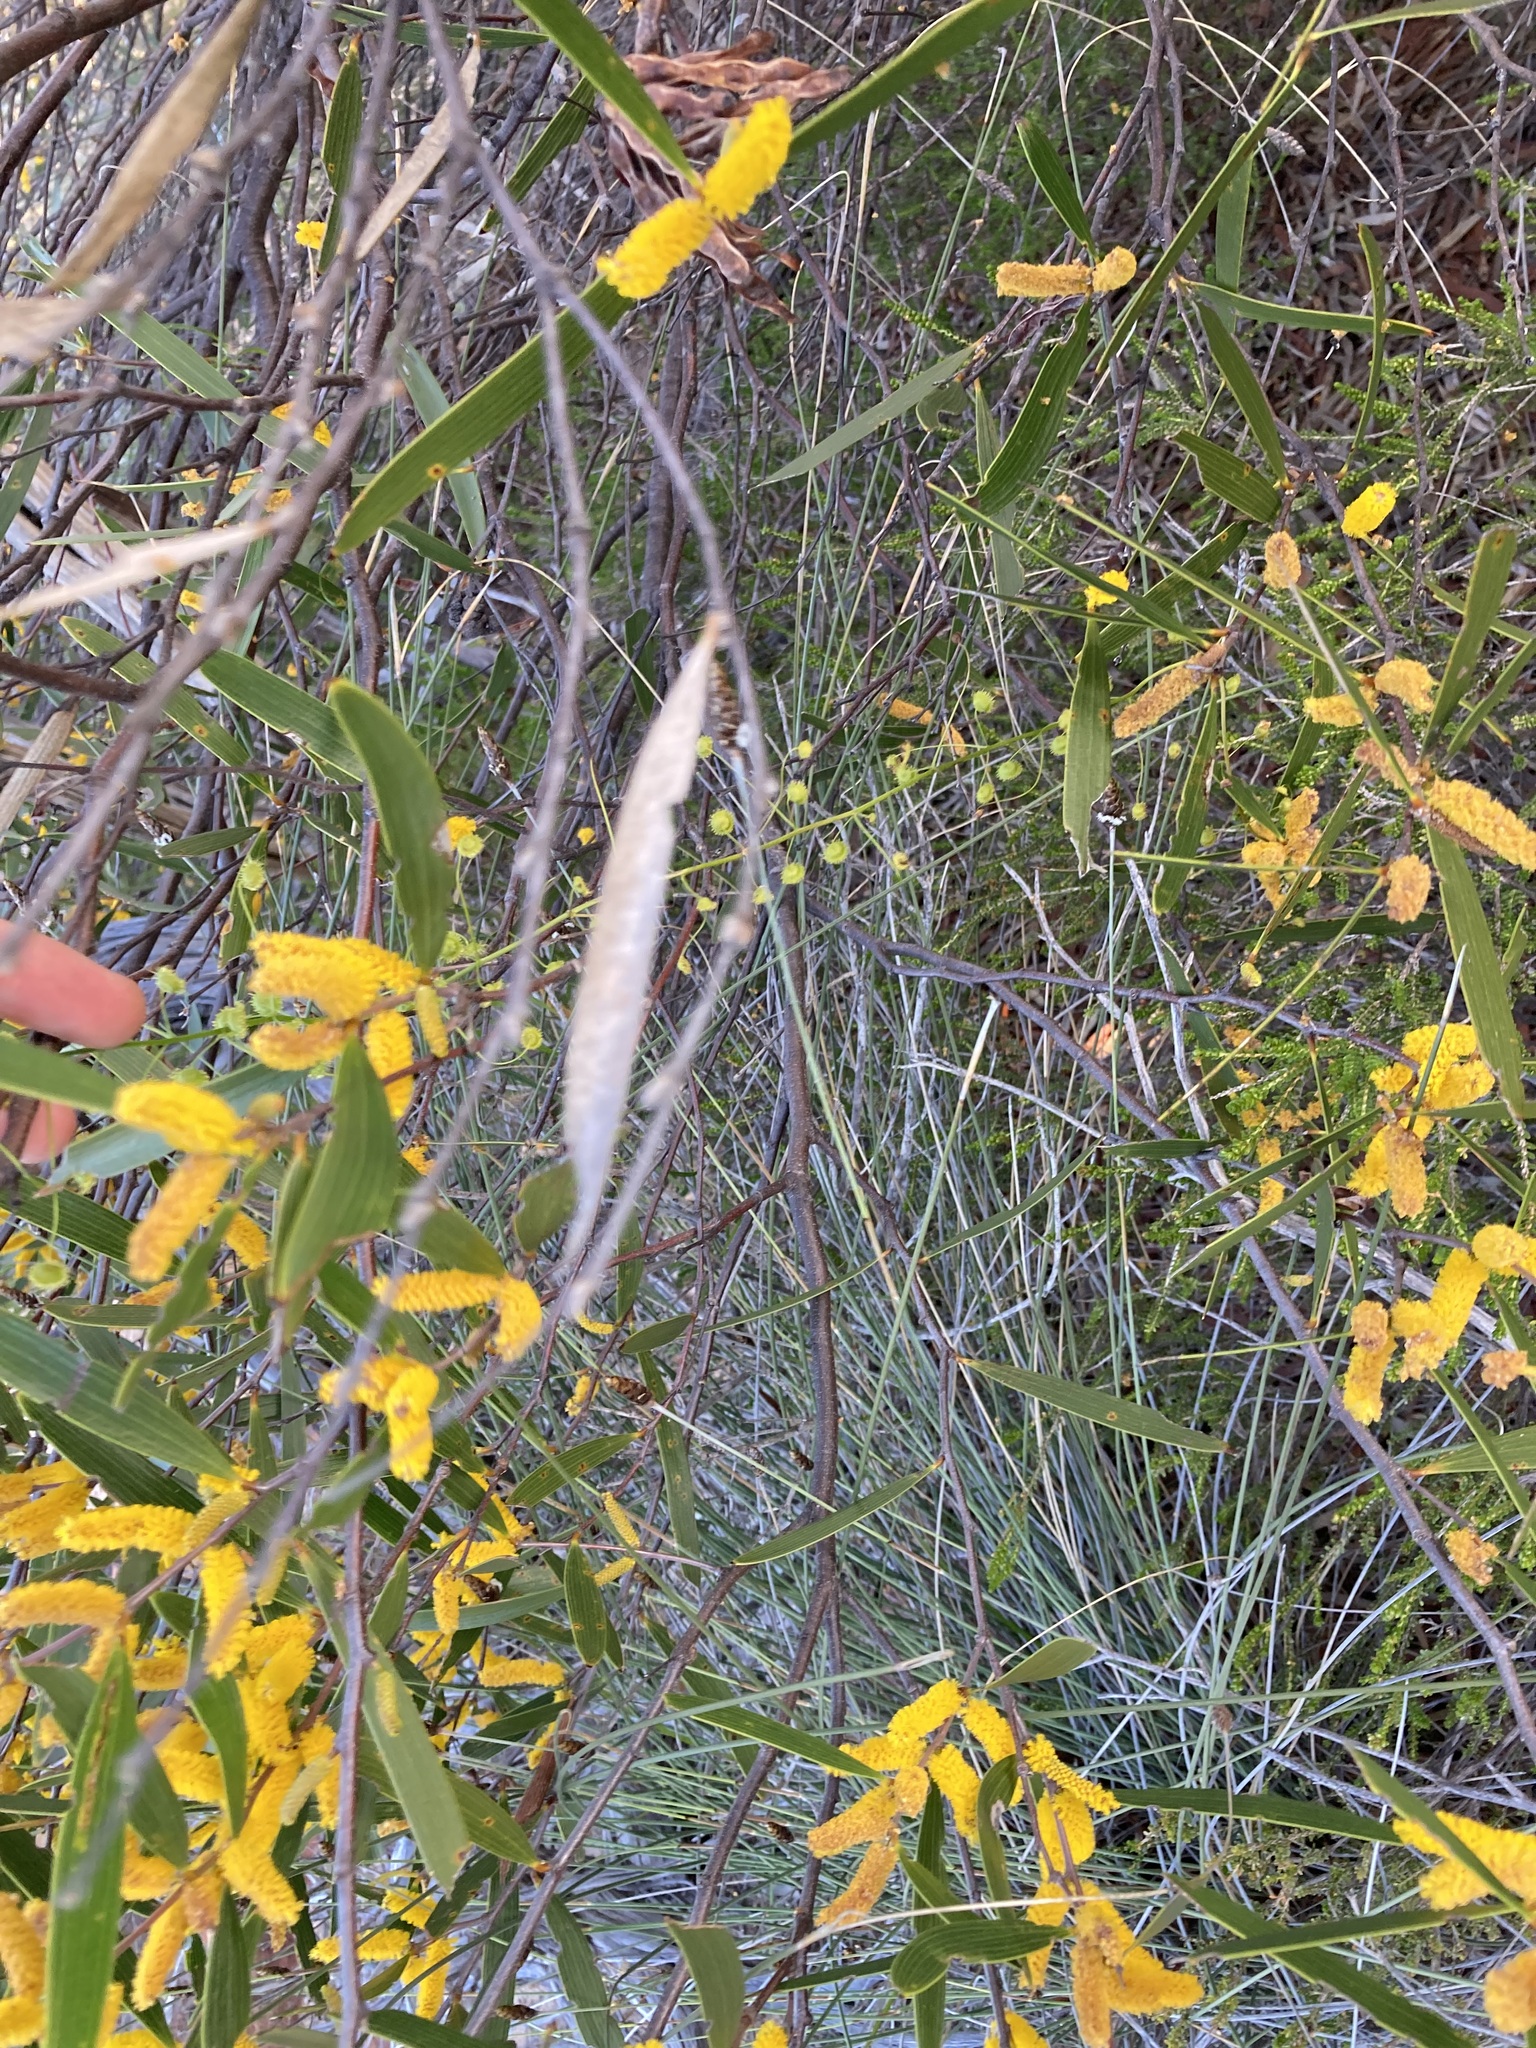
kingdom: Plantae
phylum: Tracheophyta
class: Magnoliopsida
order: Caryophyllales
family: Droseraceae
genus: Drosera
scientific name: Drosera hirsuta
